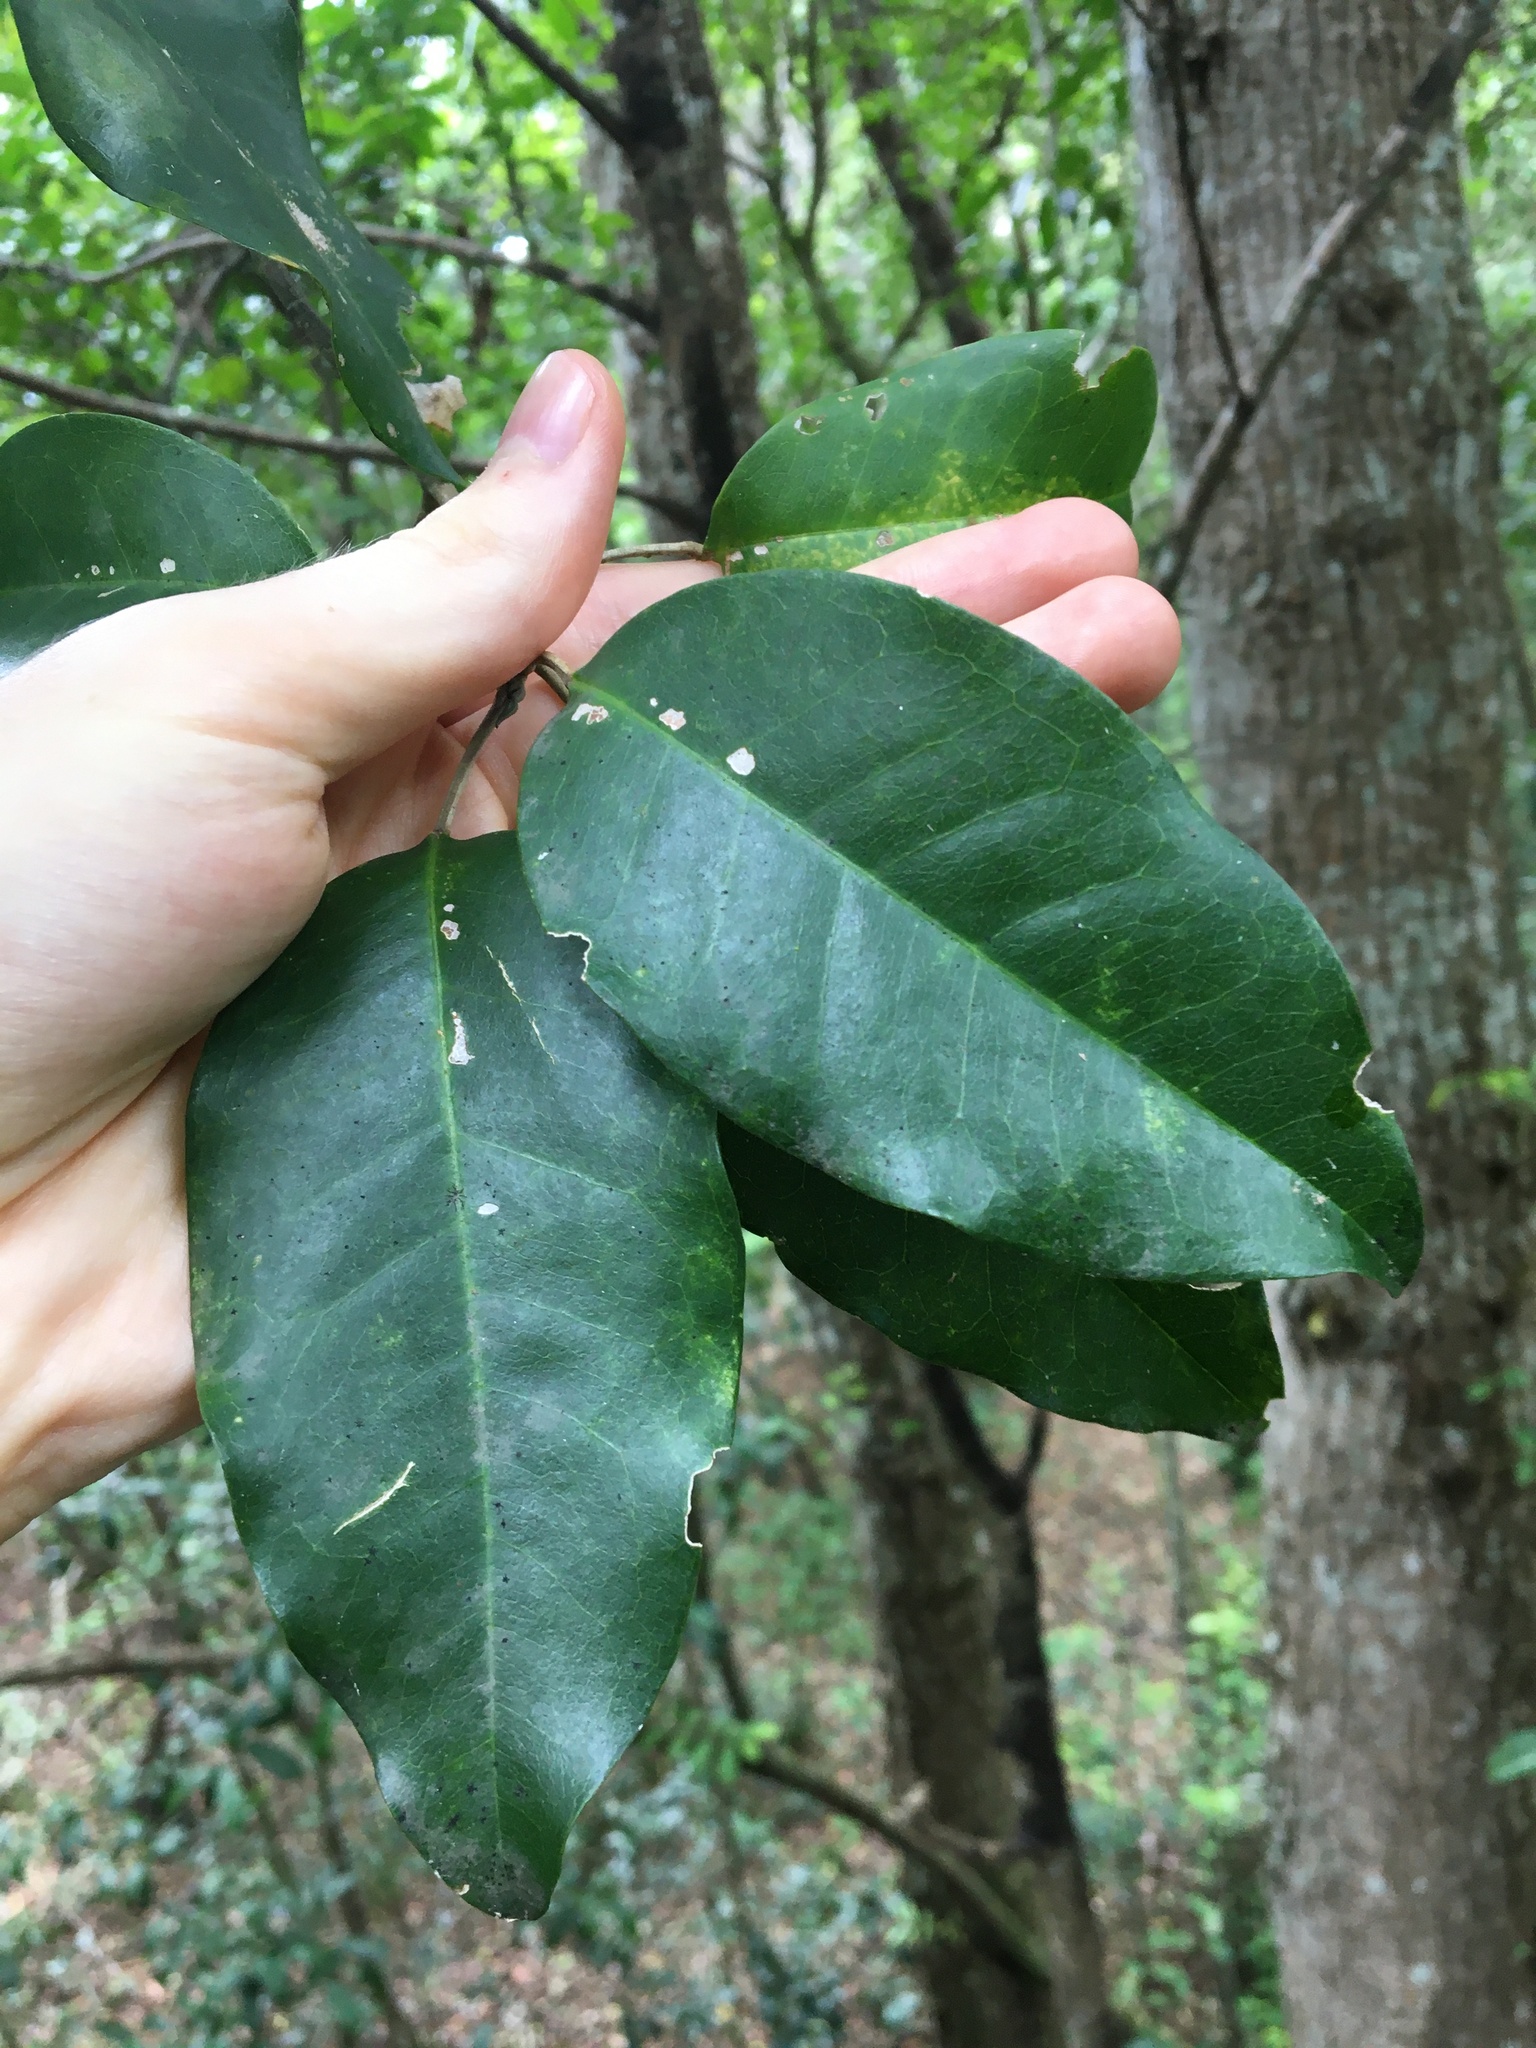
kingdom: Plantae
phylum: Tracheophyta
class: Magnoliopsida
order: Sapindales
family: Rutaceae
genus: Sarcomelicope
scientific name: Sarcomelicope simplicifolia
